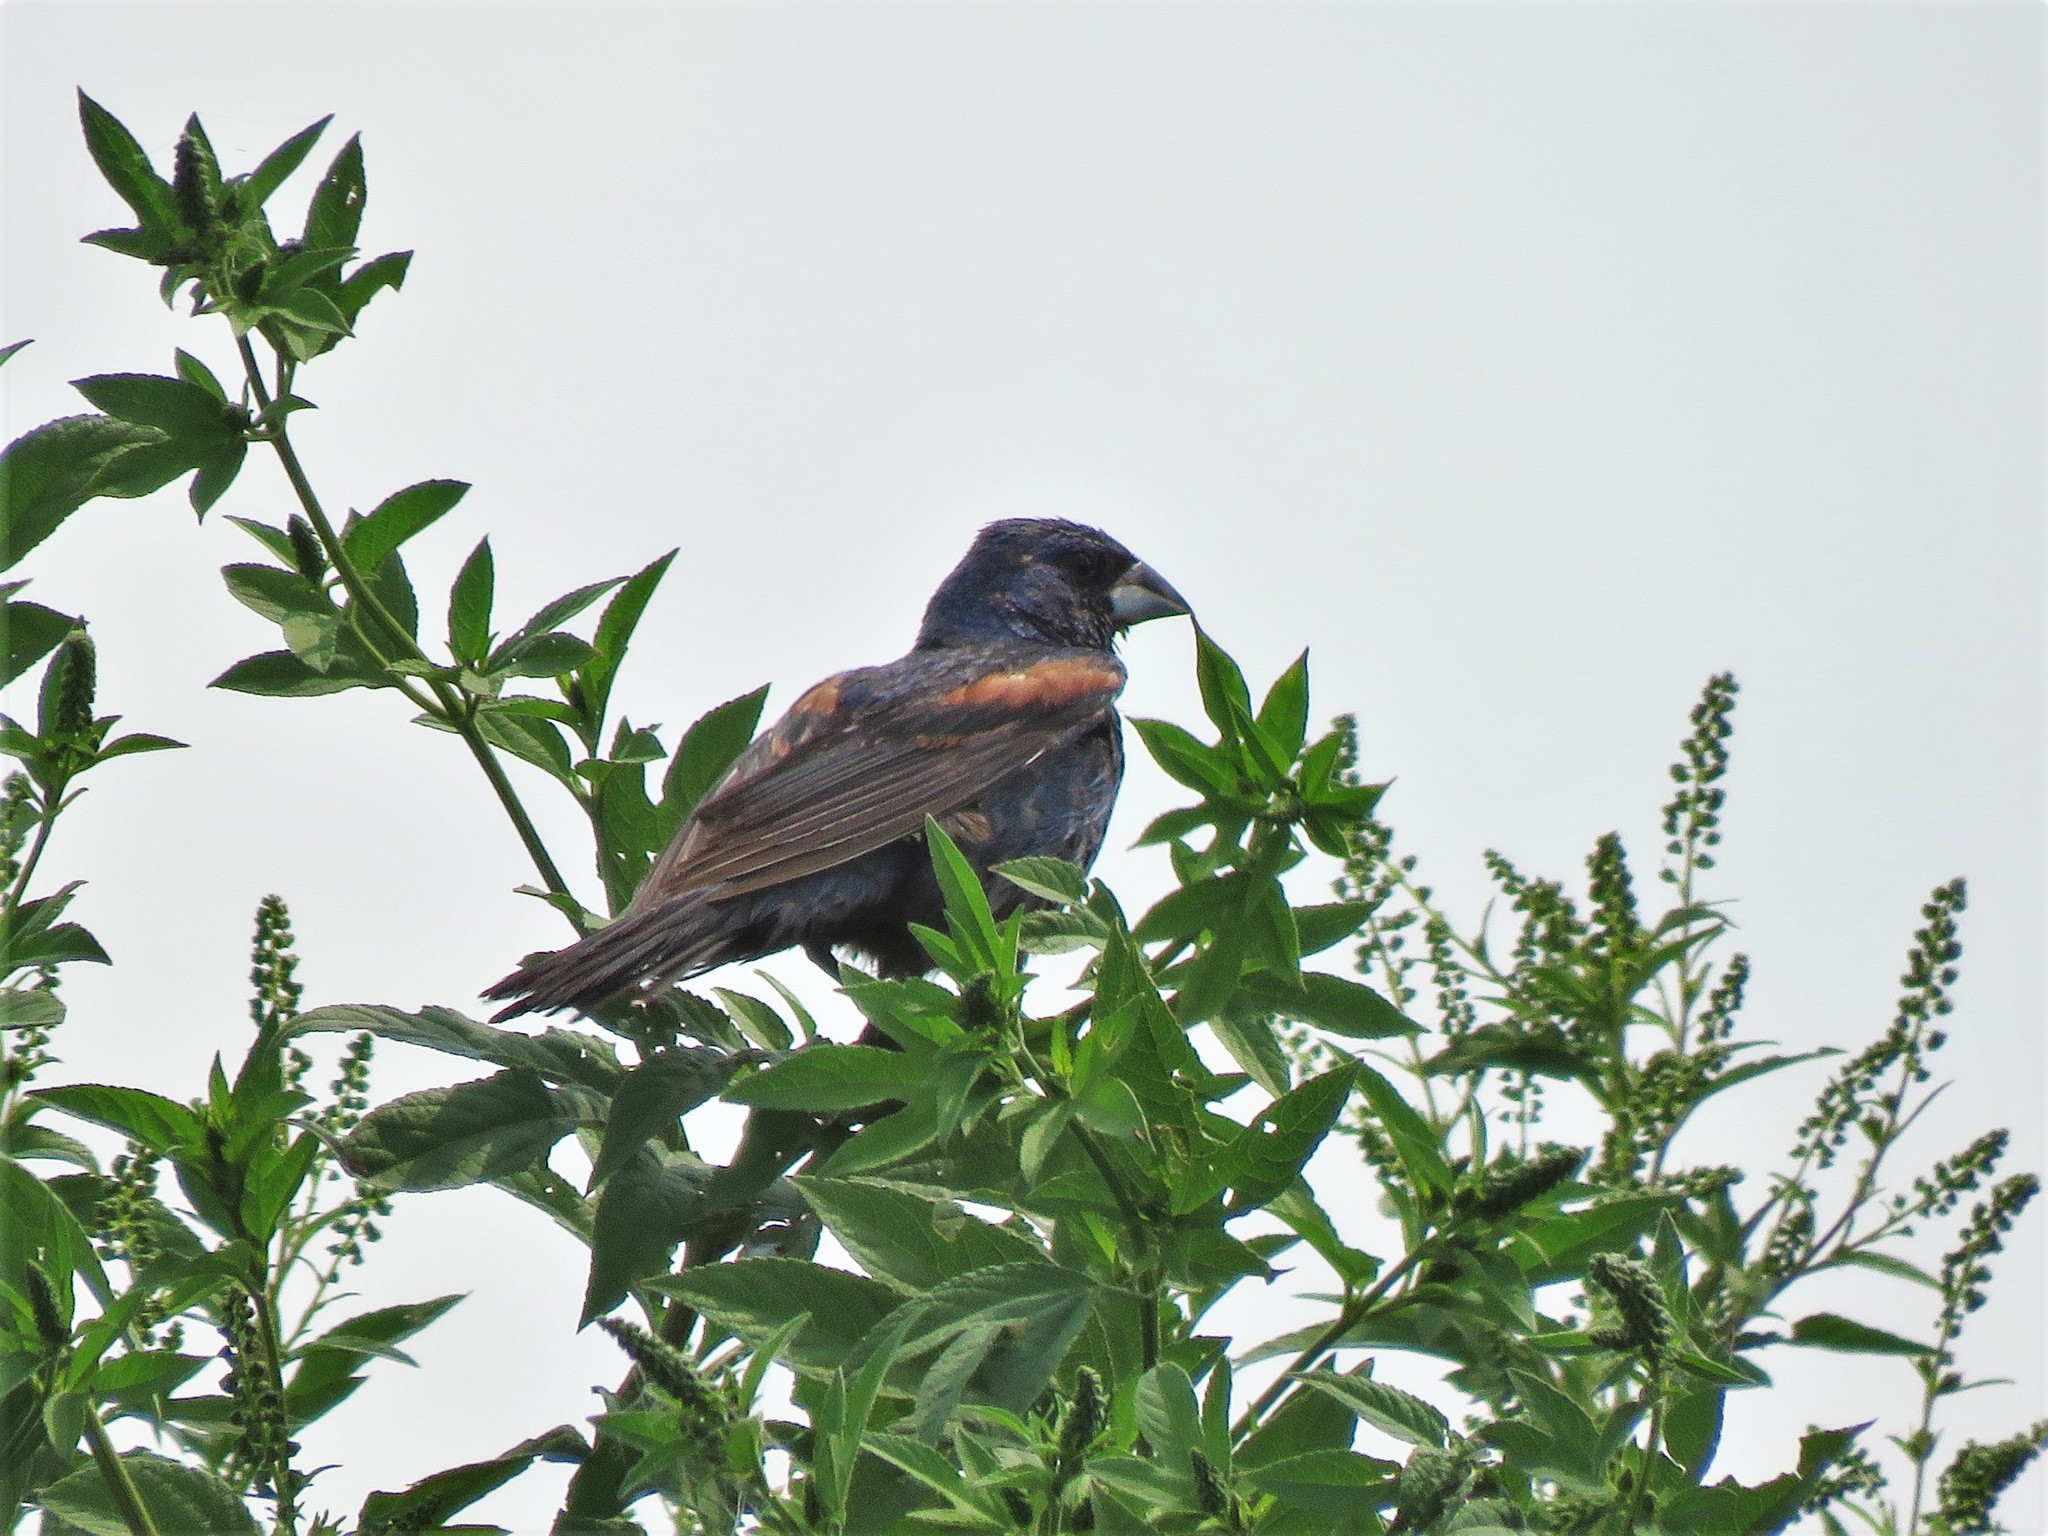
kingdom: Animalia
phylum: Chordata
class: Aves
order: Passeriformes
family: Cardinalidae
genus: Passerina
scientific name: Passerina caerulea
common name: Blue grosbeak
